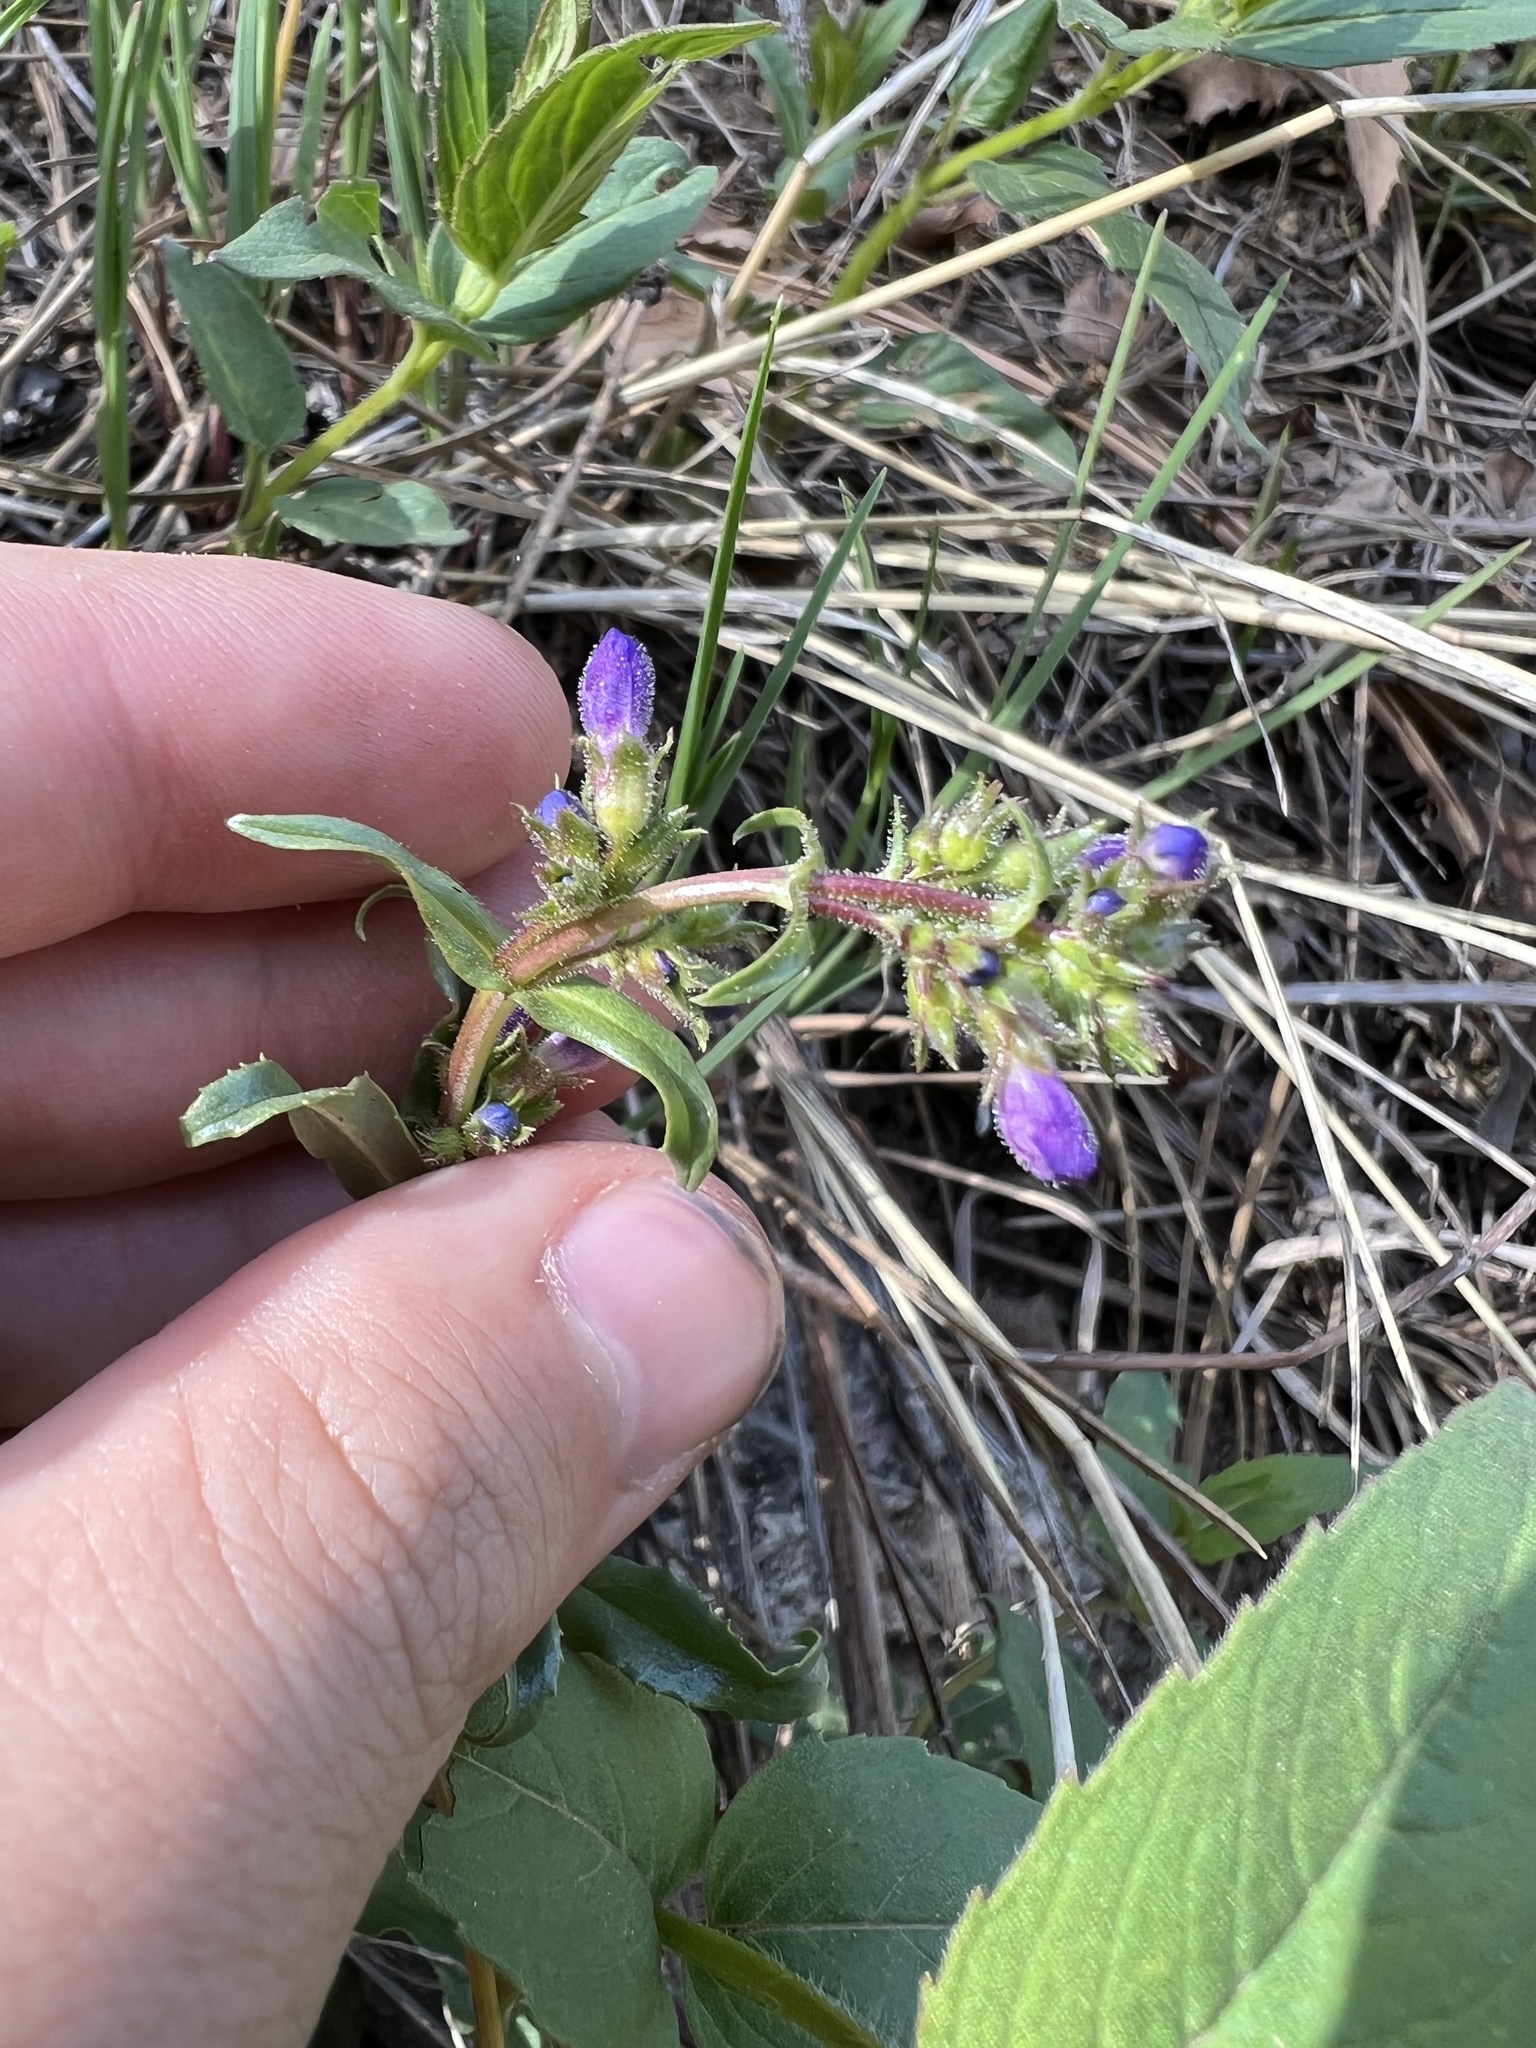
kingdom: Plantae
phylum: Tracheophyta
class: Magnoliopsida
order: Lamiales
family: Plantaginaceae
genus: Penstemon
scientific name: Penstemon virens
